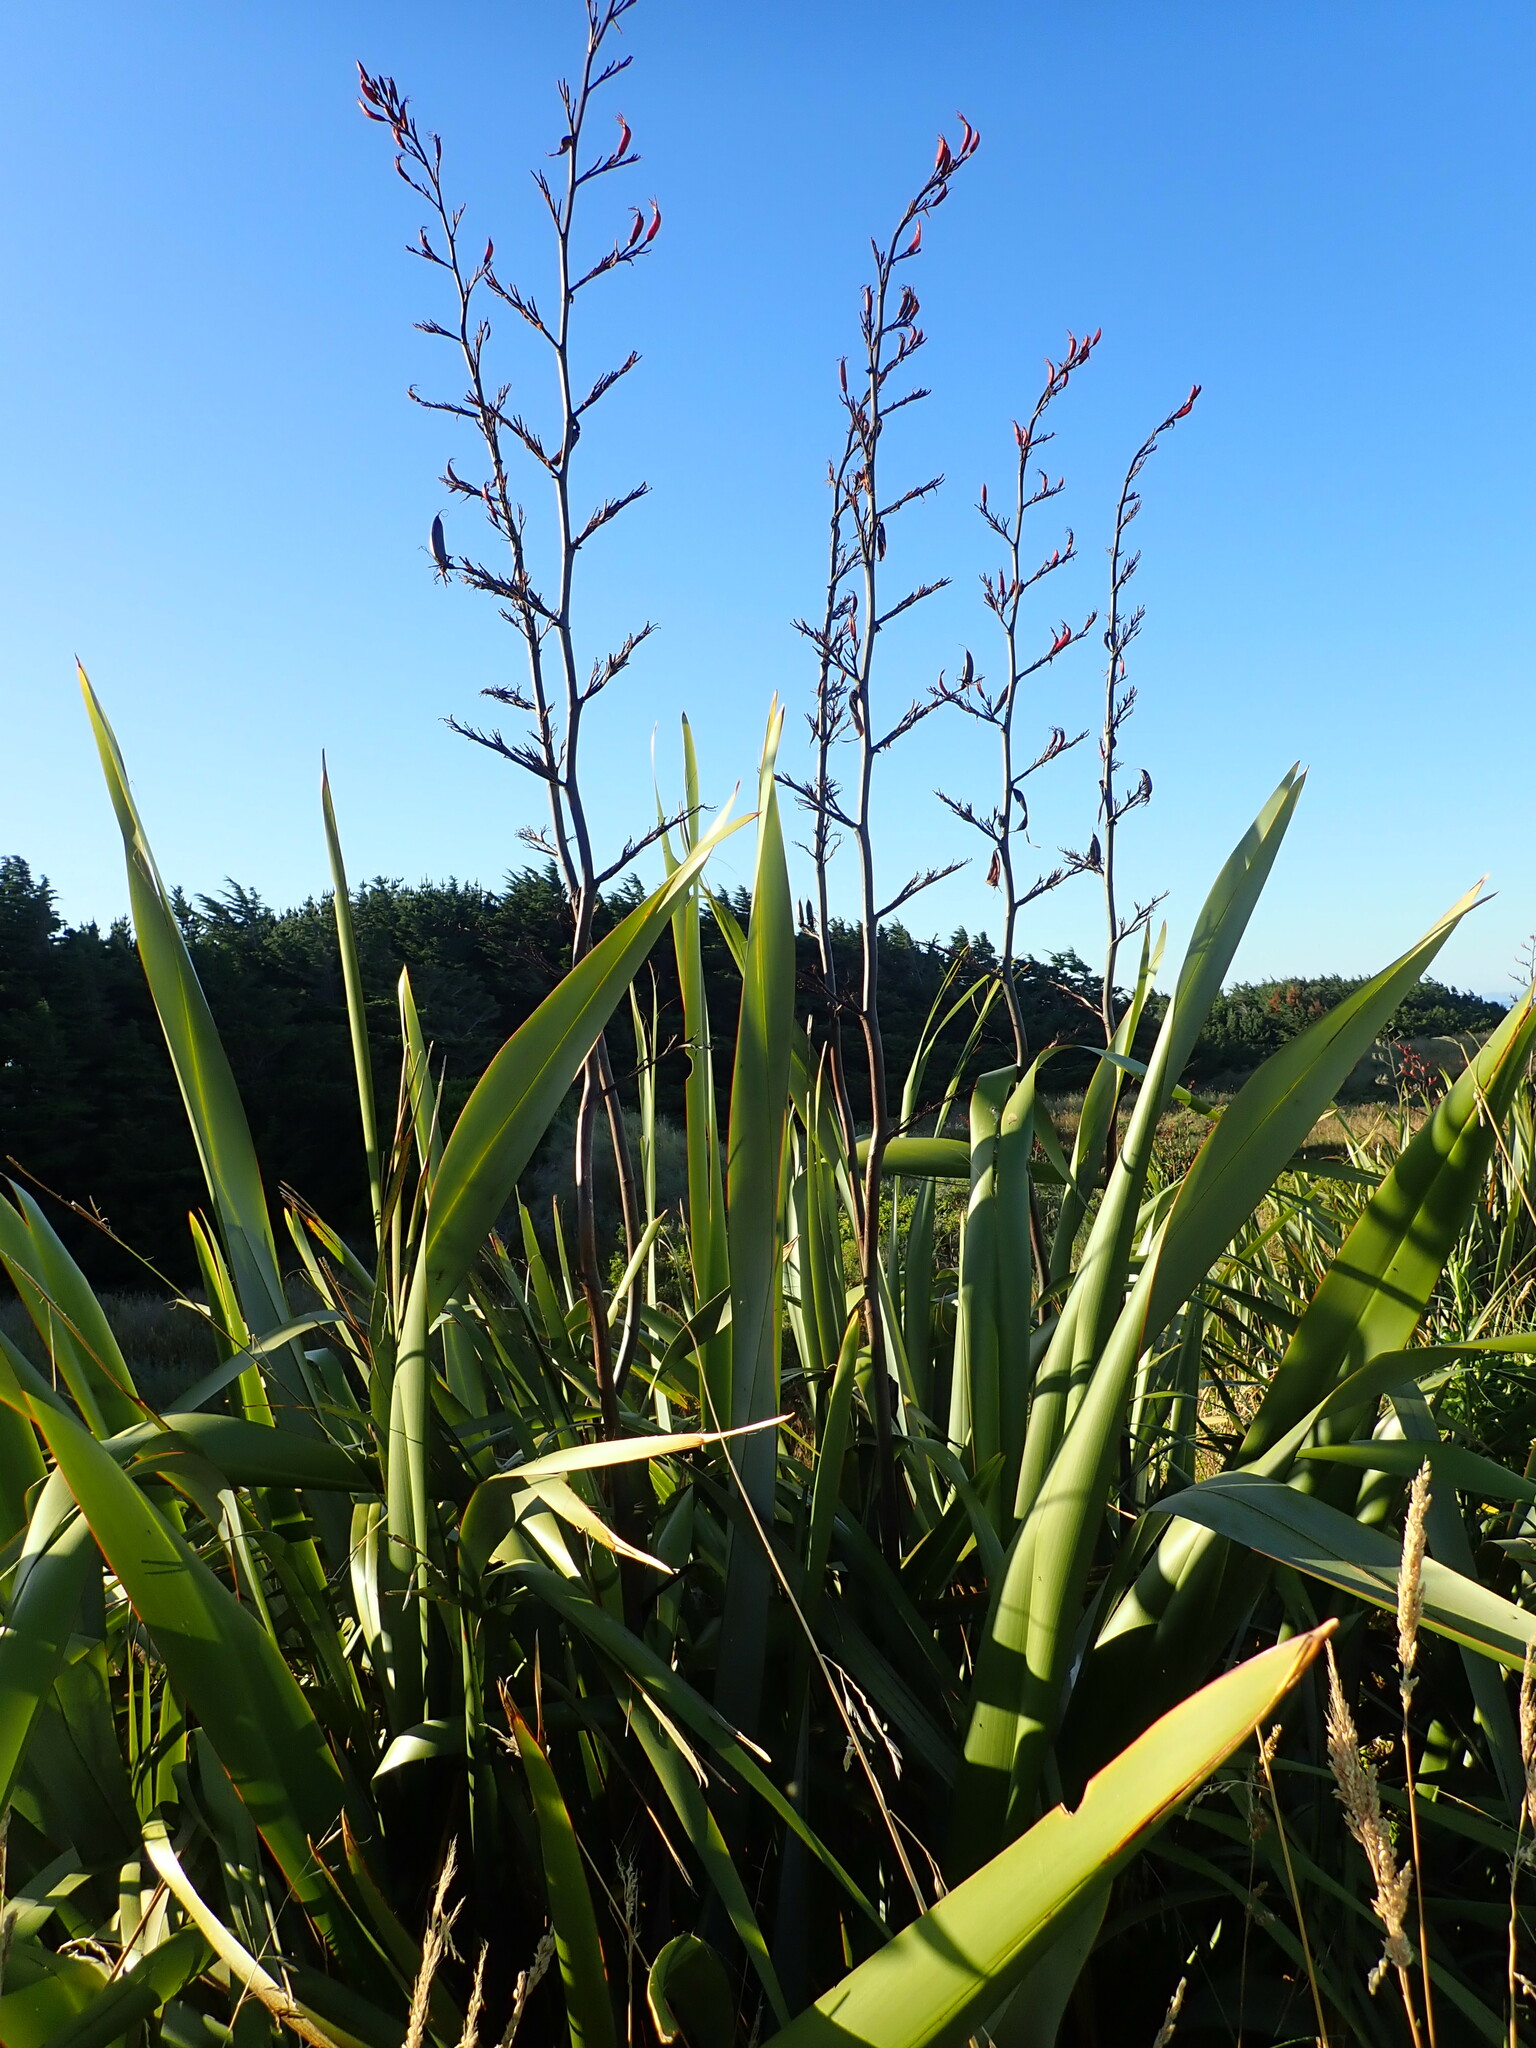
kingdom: Plantae
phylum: Tracheophyta
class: Liliopsida
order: Asparagales
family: Asphodelaceae
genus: Phormium
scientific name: Phormium tenax
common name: New zealand flax
